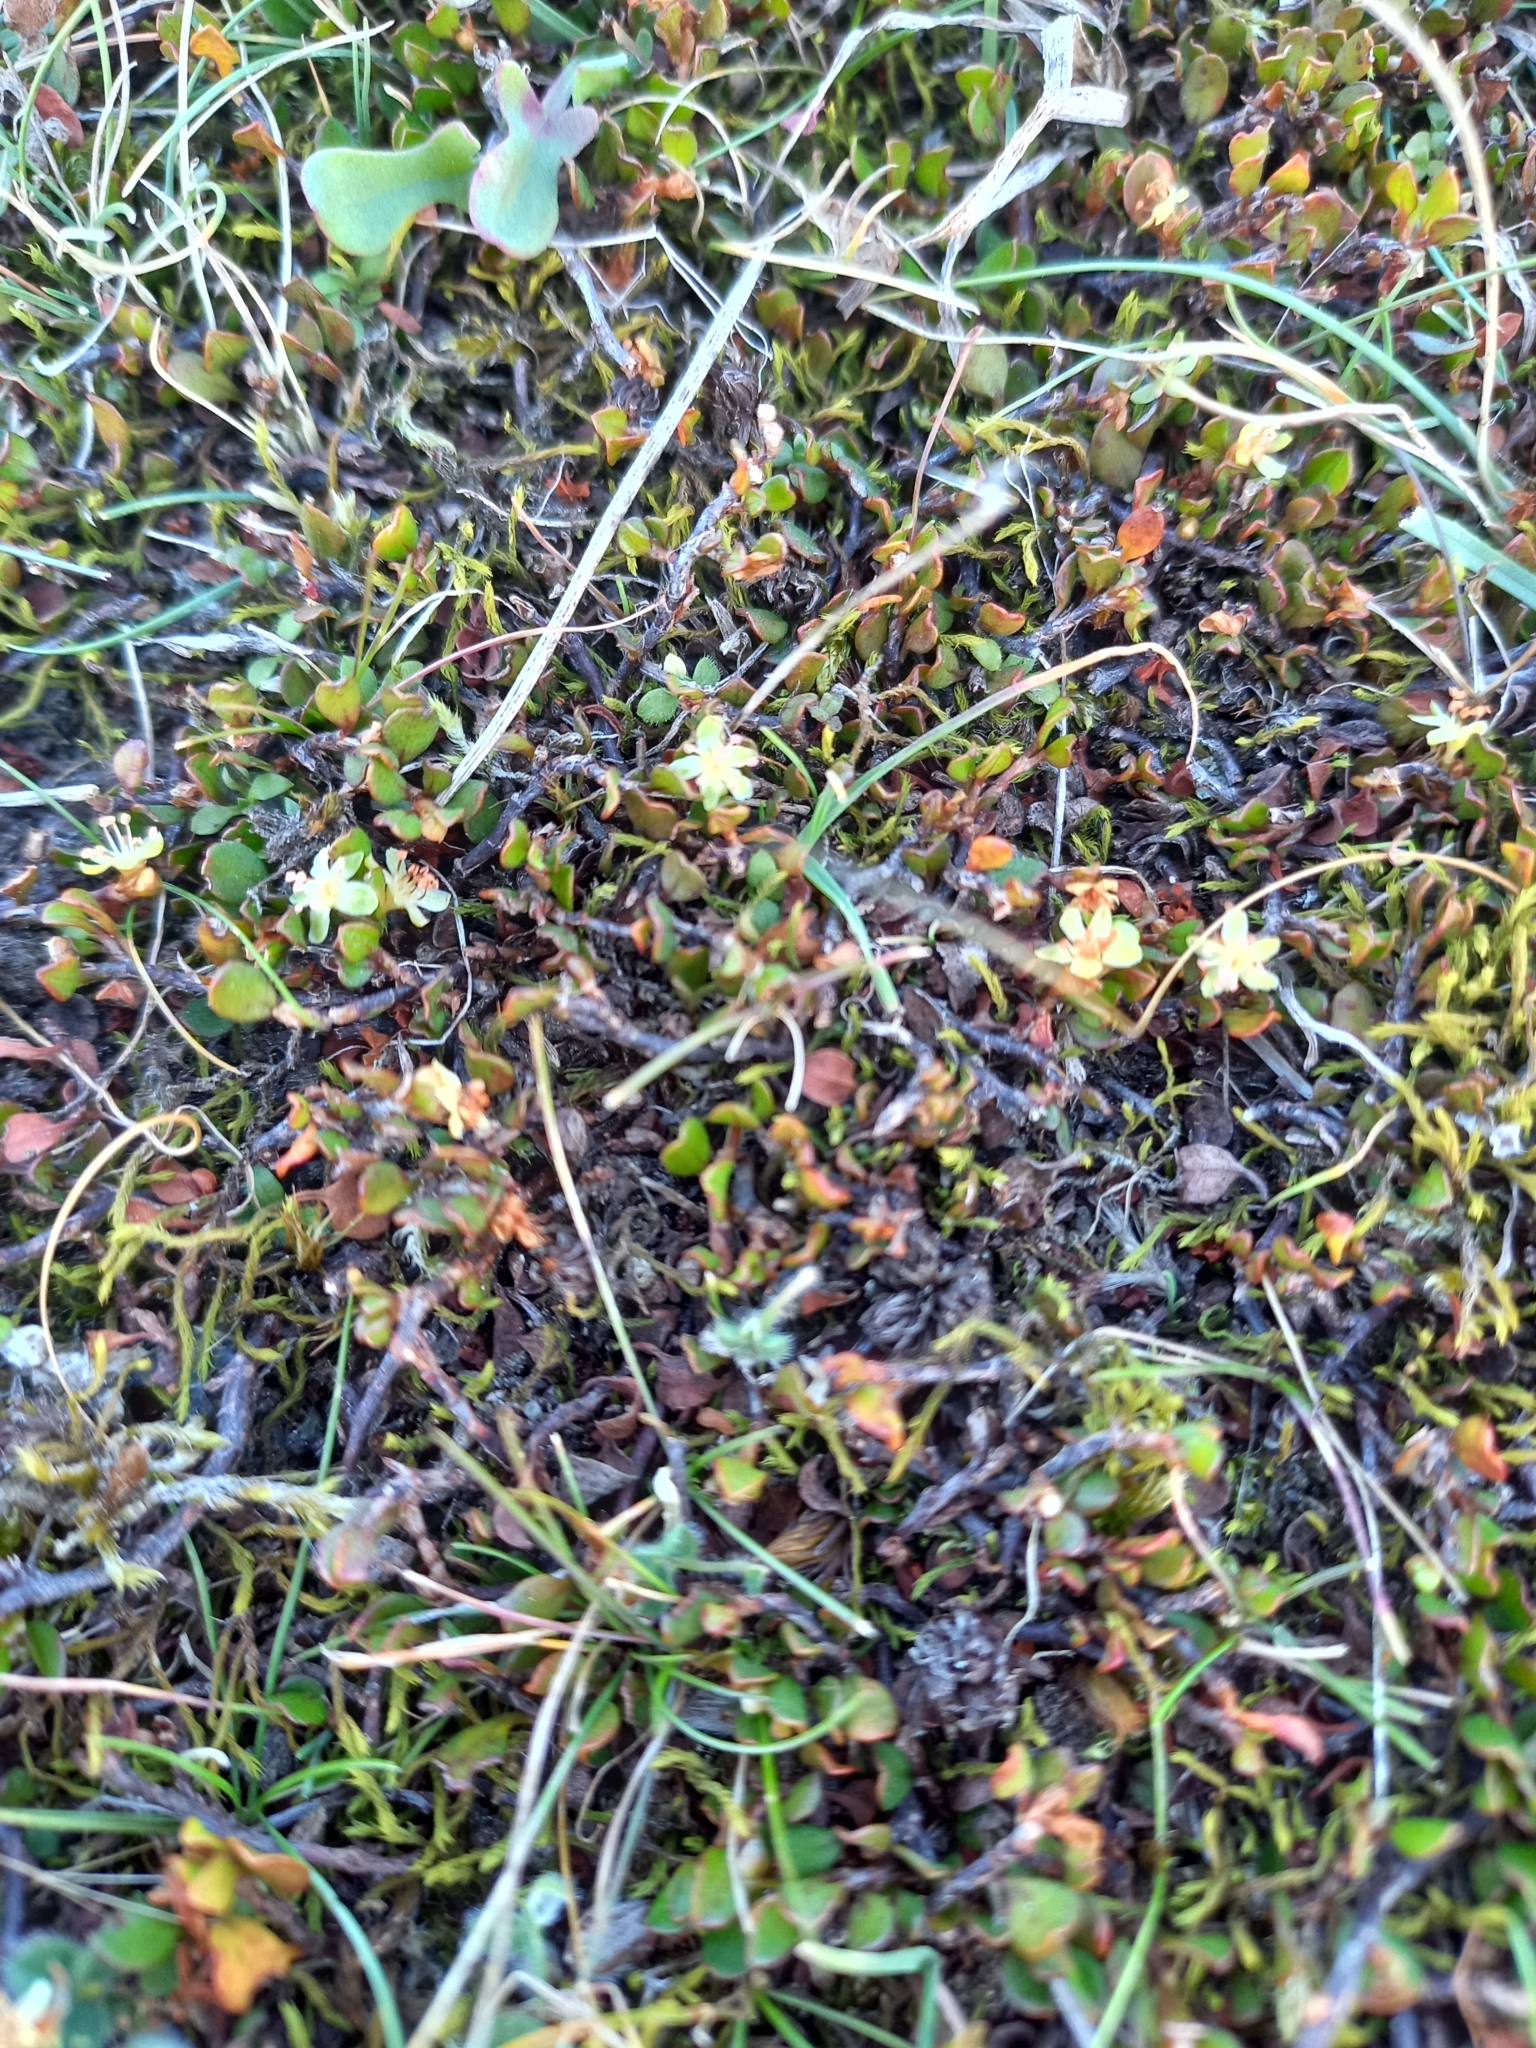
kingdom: Plantae
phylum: Tracheophyta
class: Magnoliopsida
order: Caryophyllales
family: Polygonaceae
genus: Muehlenbeckia
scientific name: Muehlenbeckia axillaris
